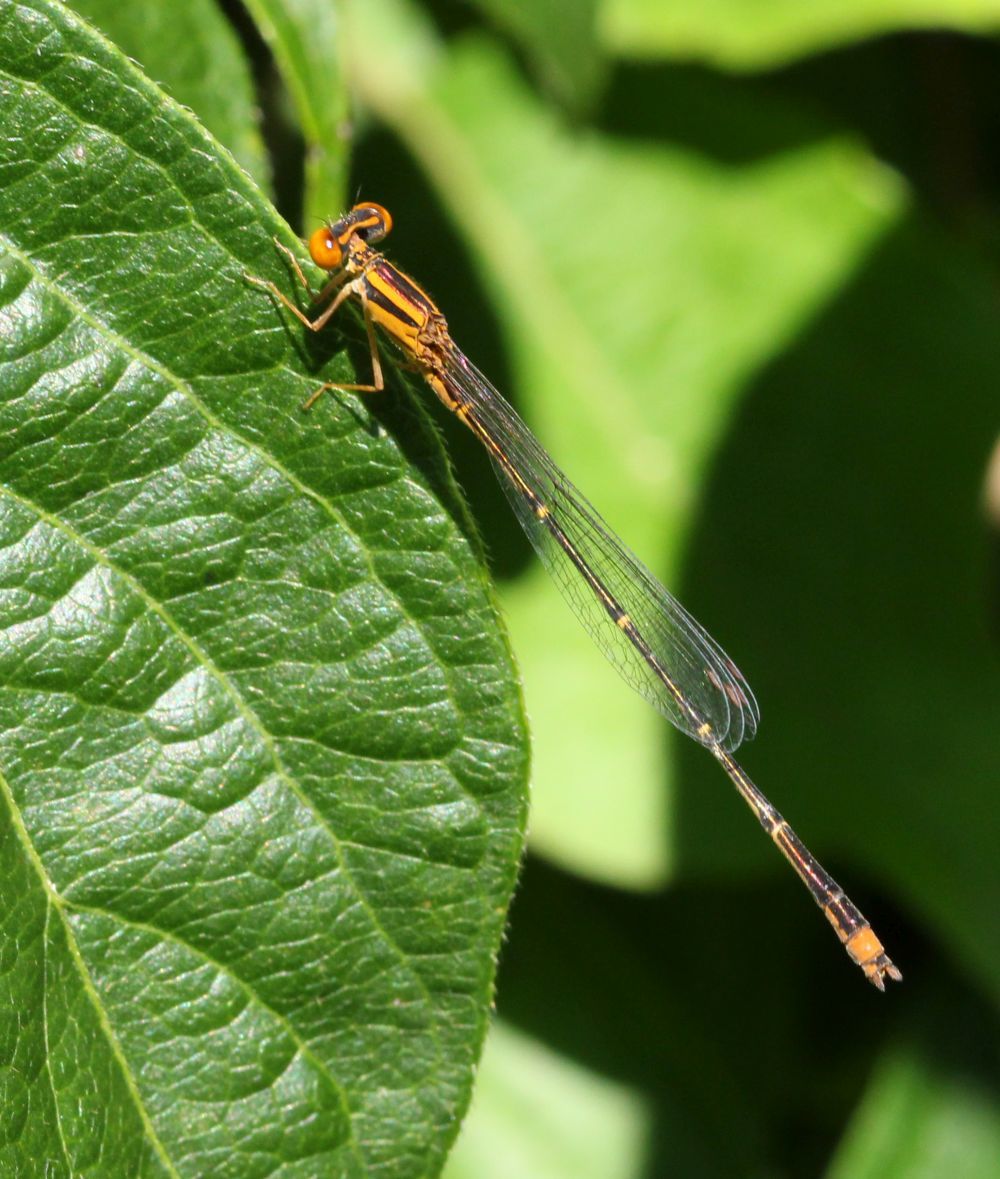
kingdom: Animalia
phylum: Arthropoda
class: Insecta
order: Odonata
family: Coenagrionidae
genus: Enallagma
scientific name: Enallagma signatum
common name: Orange bluet
